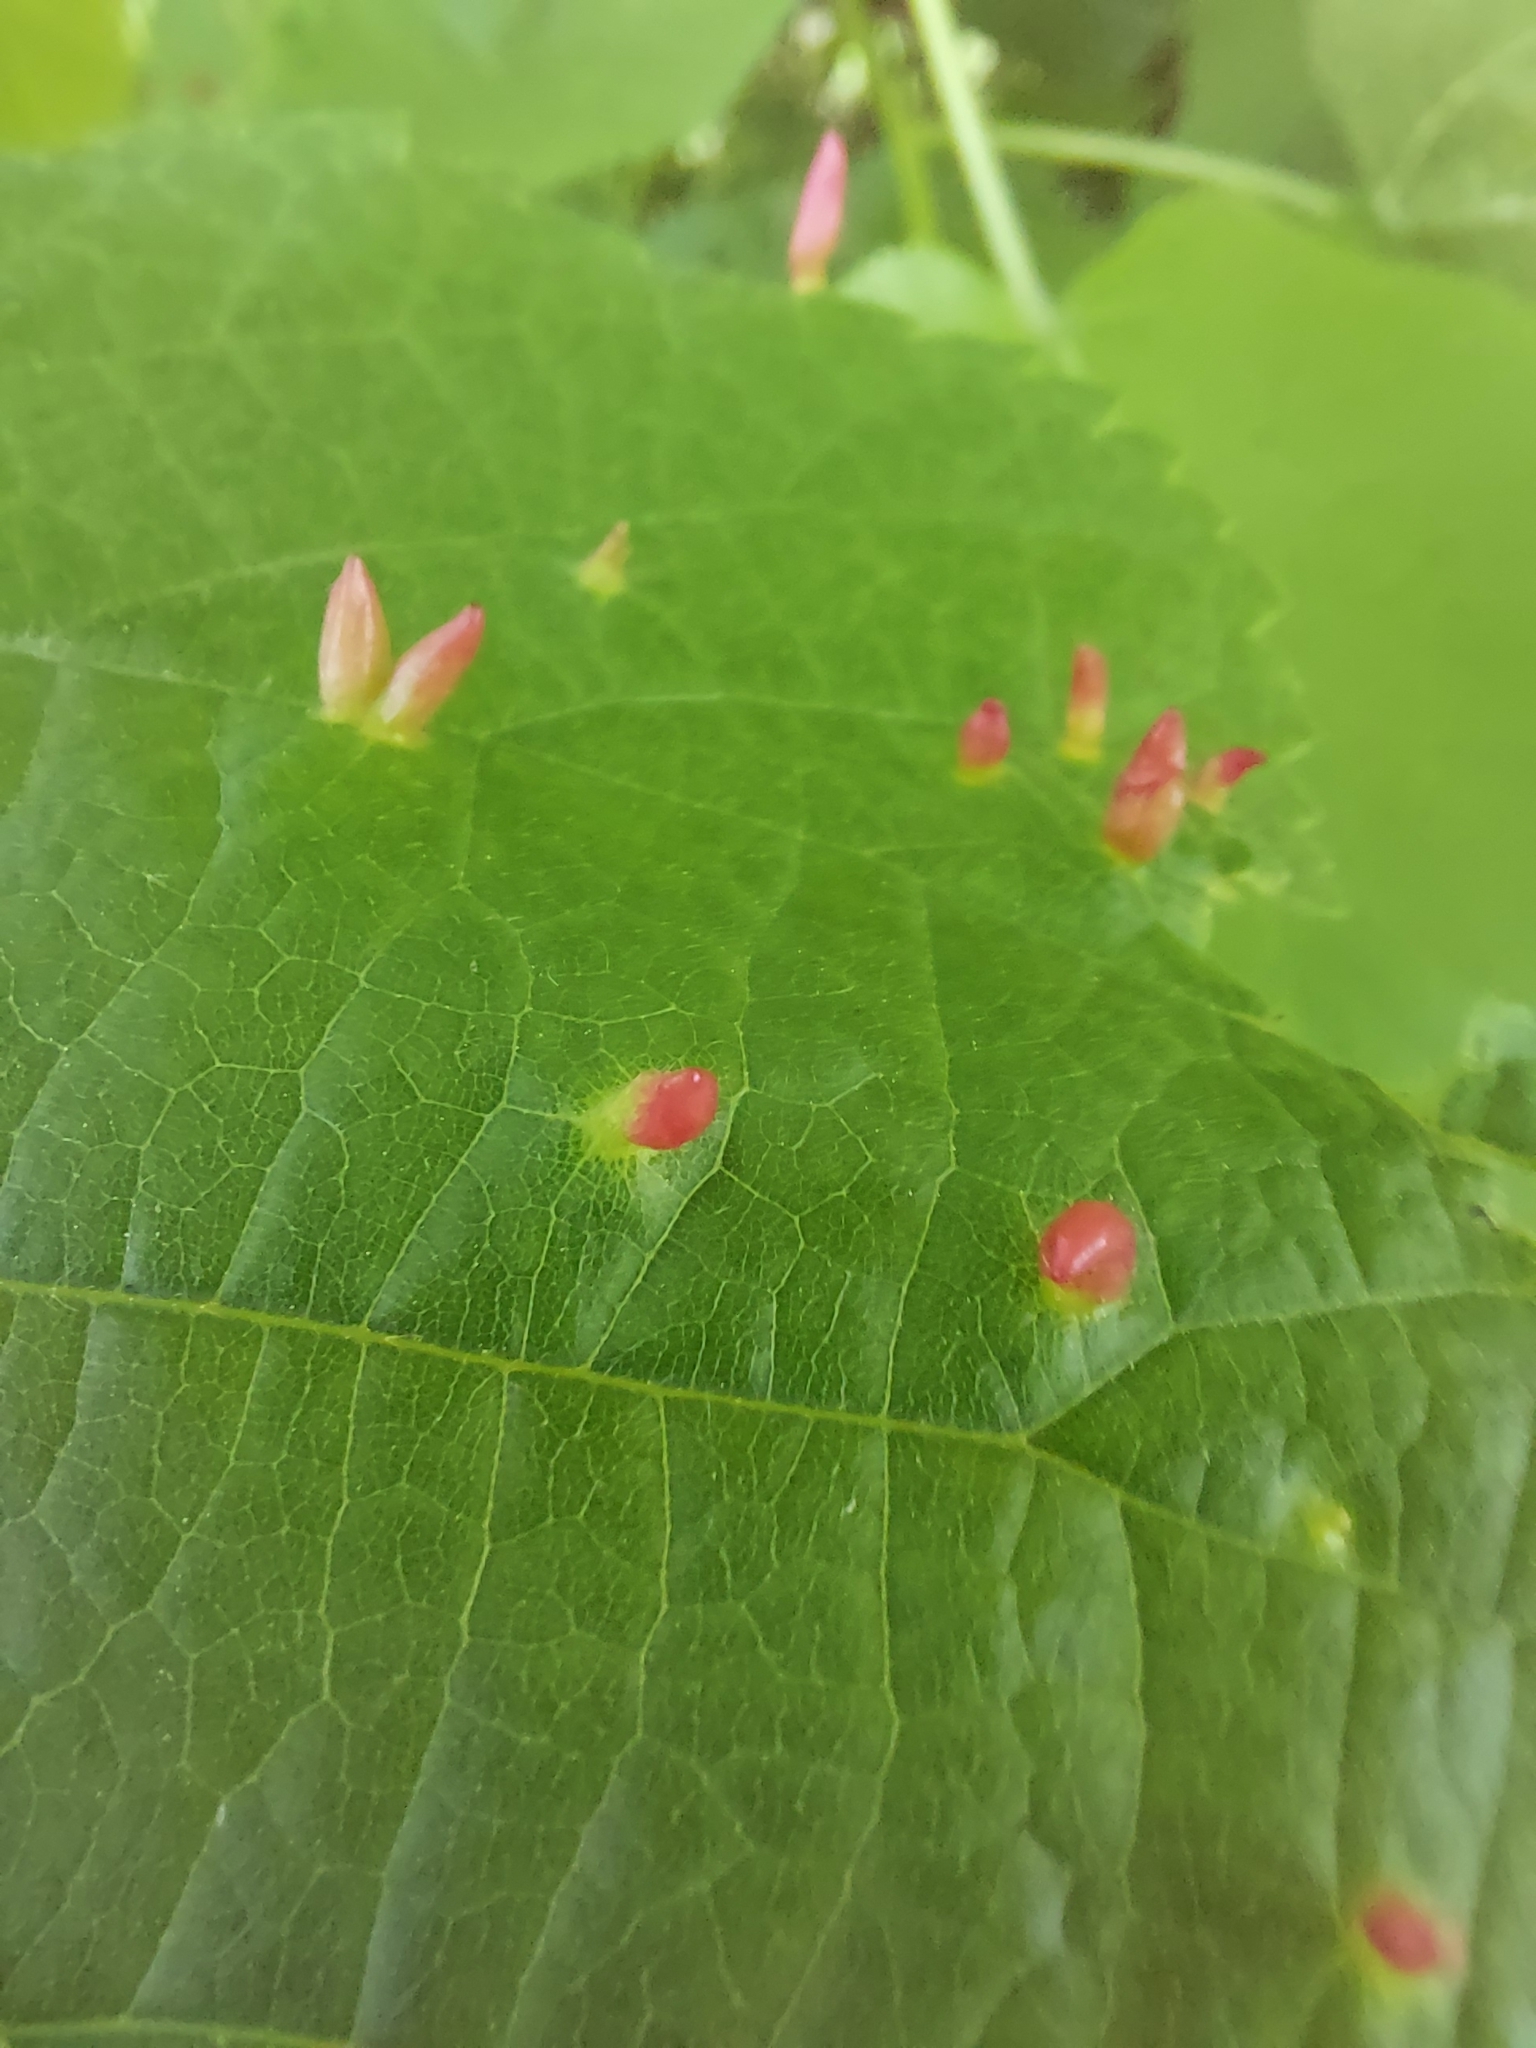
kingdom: Animalia
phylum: Arthropoda
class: Arachnida
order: Trombidiformes
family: Eriophyidae
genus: Eriophyes
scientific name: Eriophyes tiliae
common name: Red nail gall mite
